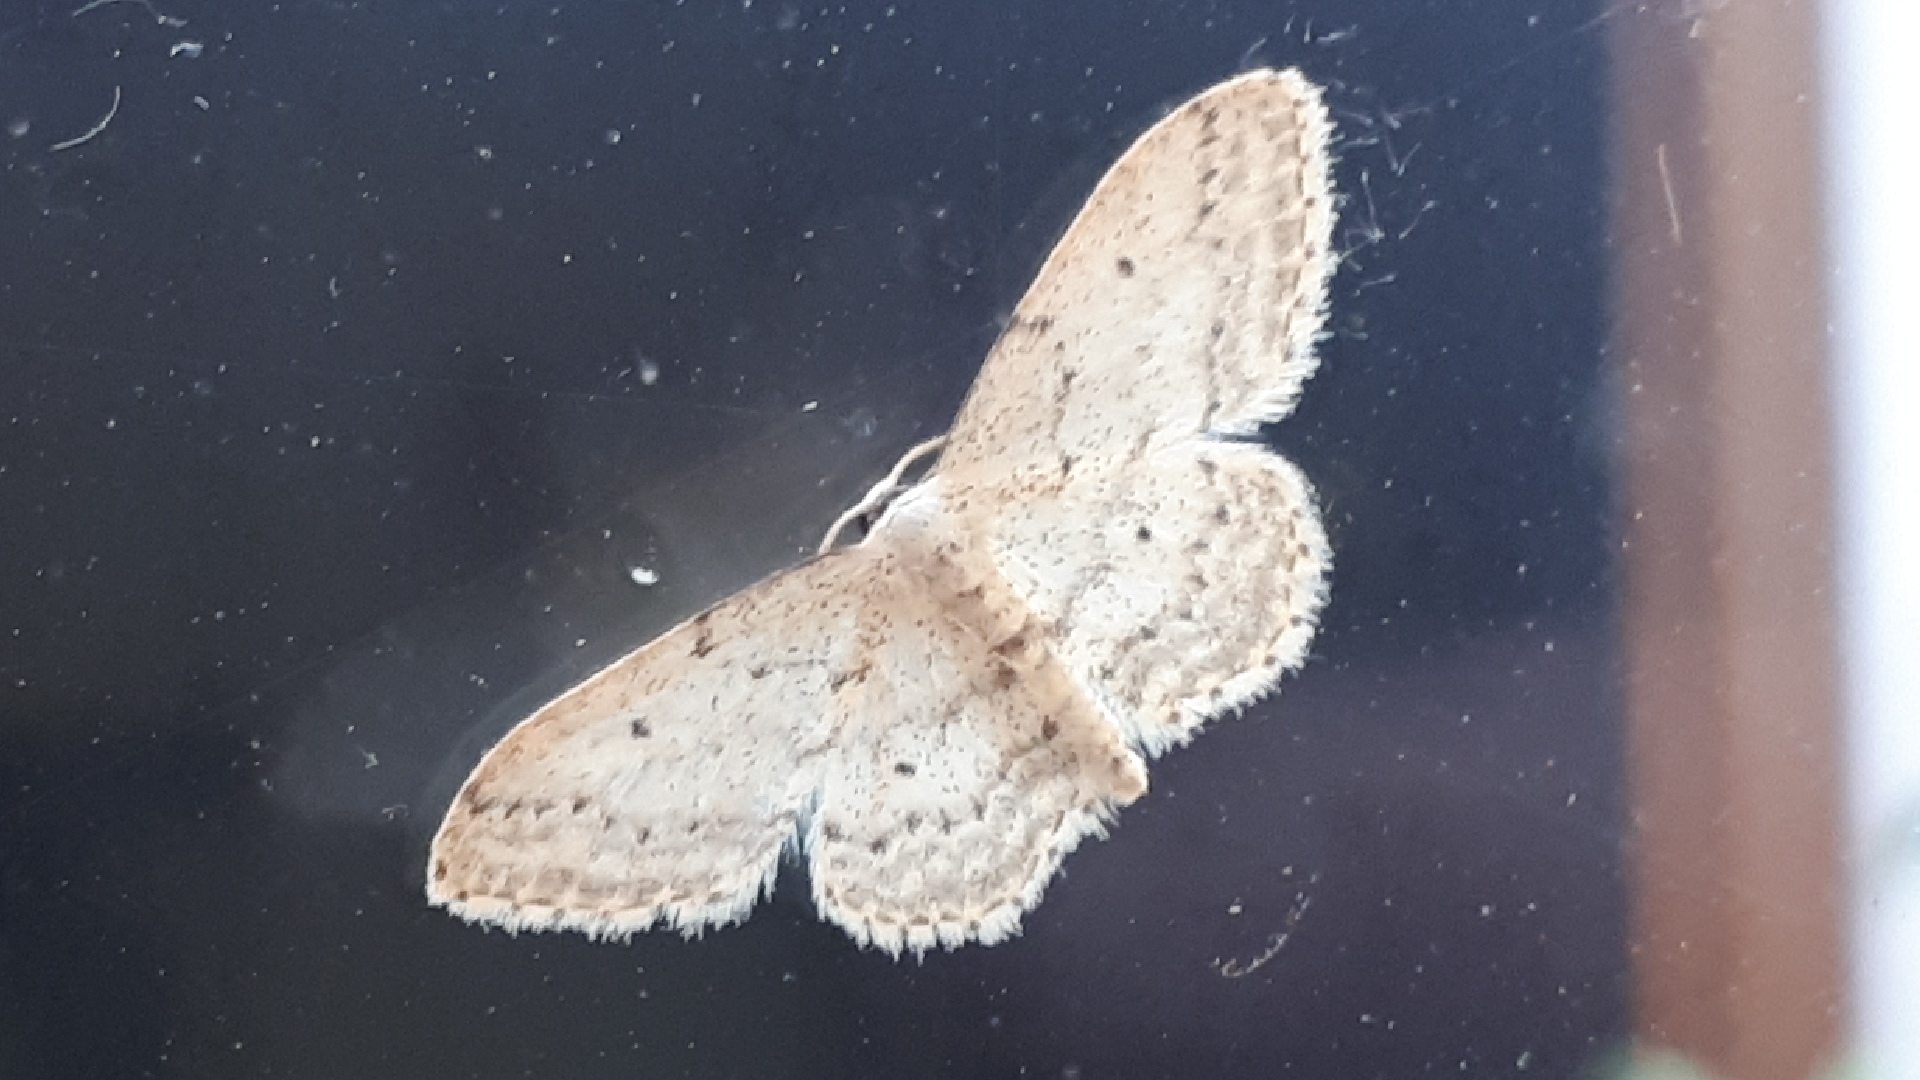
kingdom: Animalia
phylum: Arthropoda
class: Insecta
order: Lepidoptera
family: Geometridae
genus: Idaea
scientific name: Idaea seriata
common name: Small dusty wave
